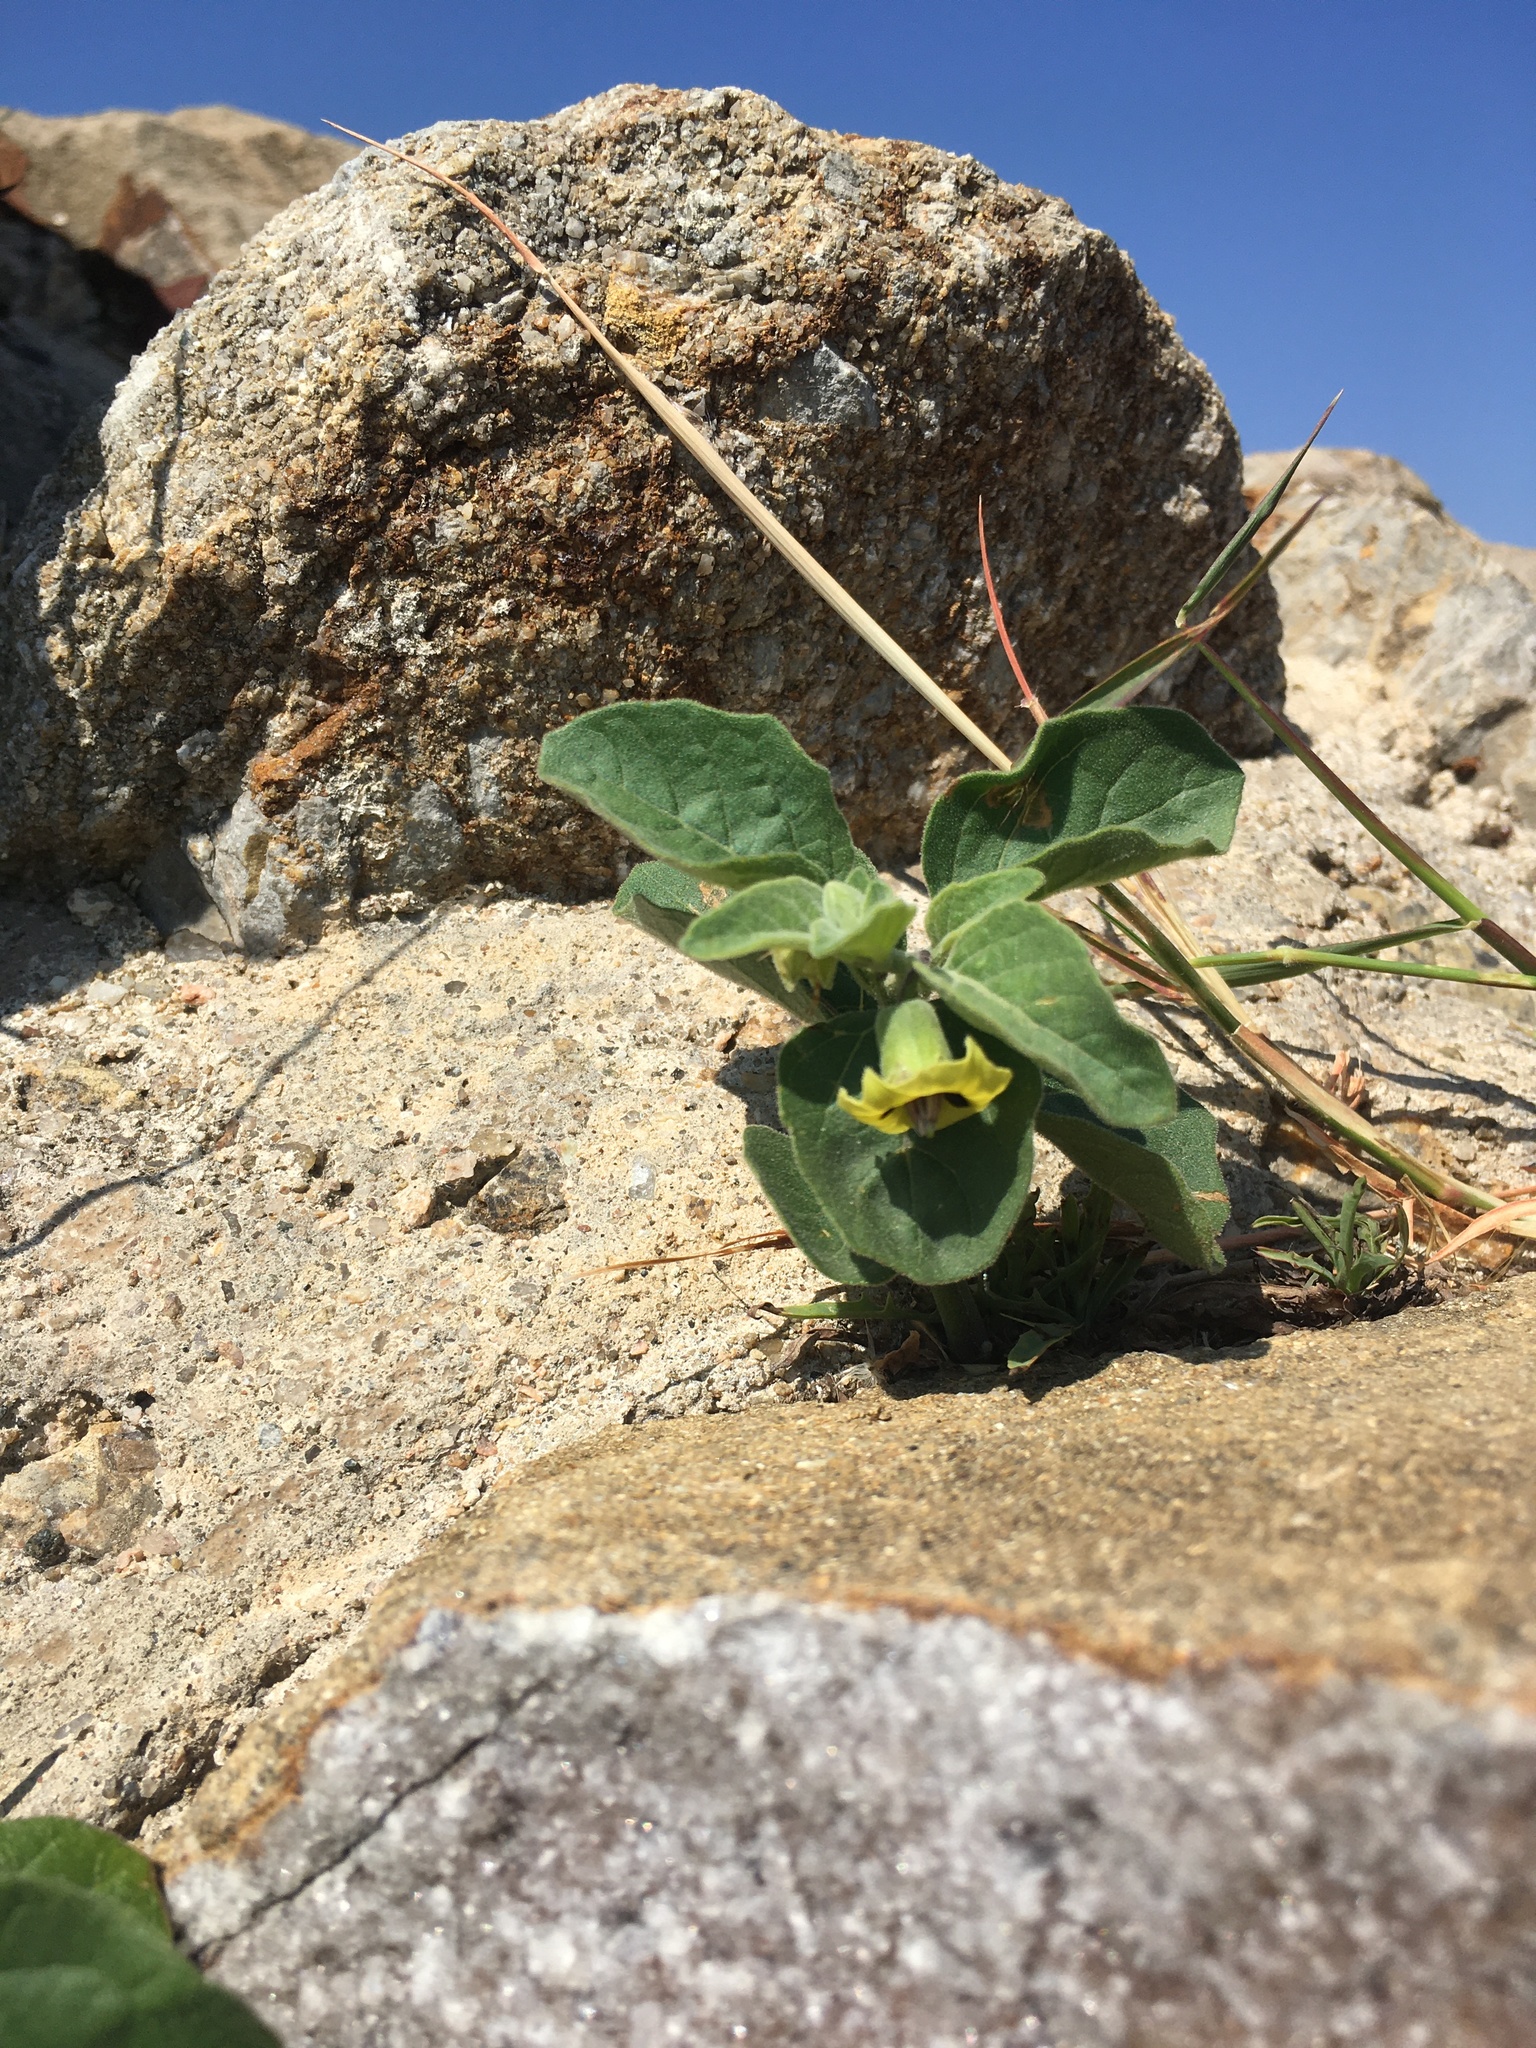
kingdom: Plantae
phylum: Tracheophyta
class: Magnoliopsida
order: Solanales
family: Solanaceae
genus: Physalis
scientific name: Physalis cinerascens
